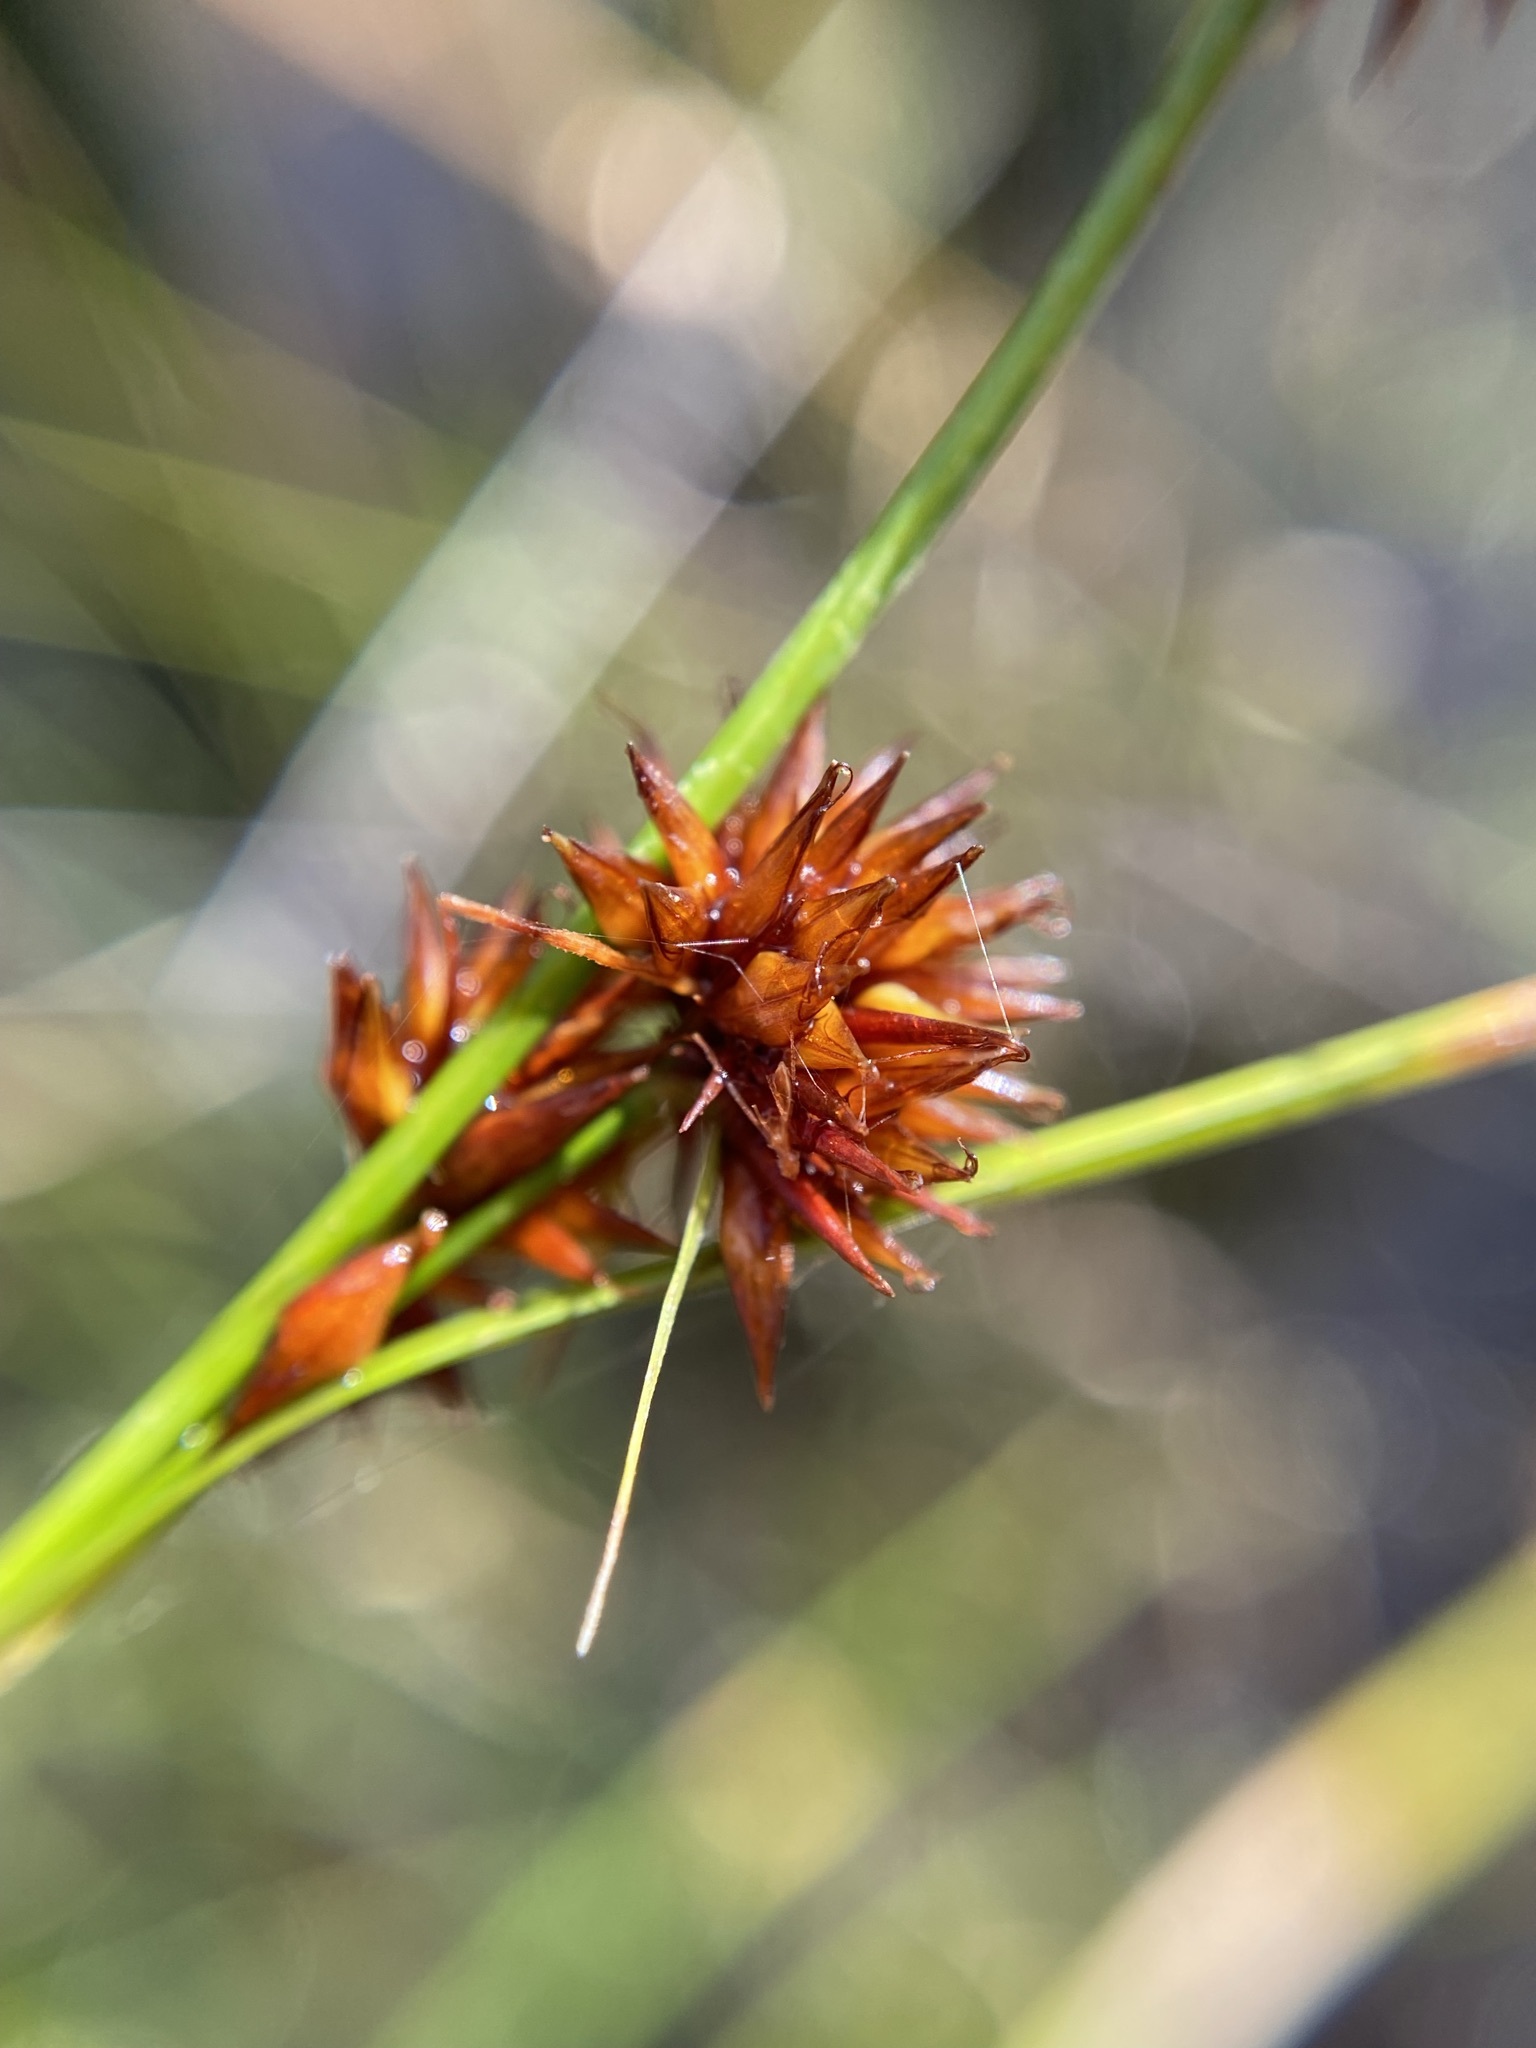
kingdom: Plantae
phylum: Tracheophyta
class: Liliopsida
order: Poales
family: Cyperaceae
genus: Rhynchospora
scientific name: Rhynchospora chalarocephala
